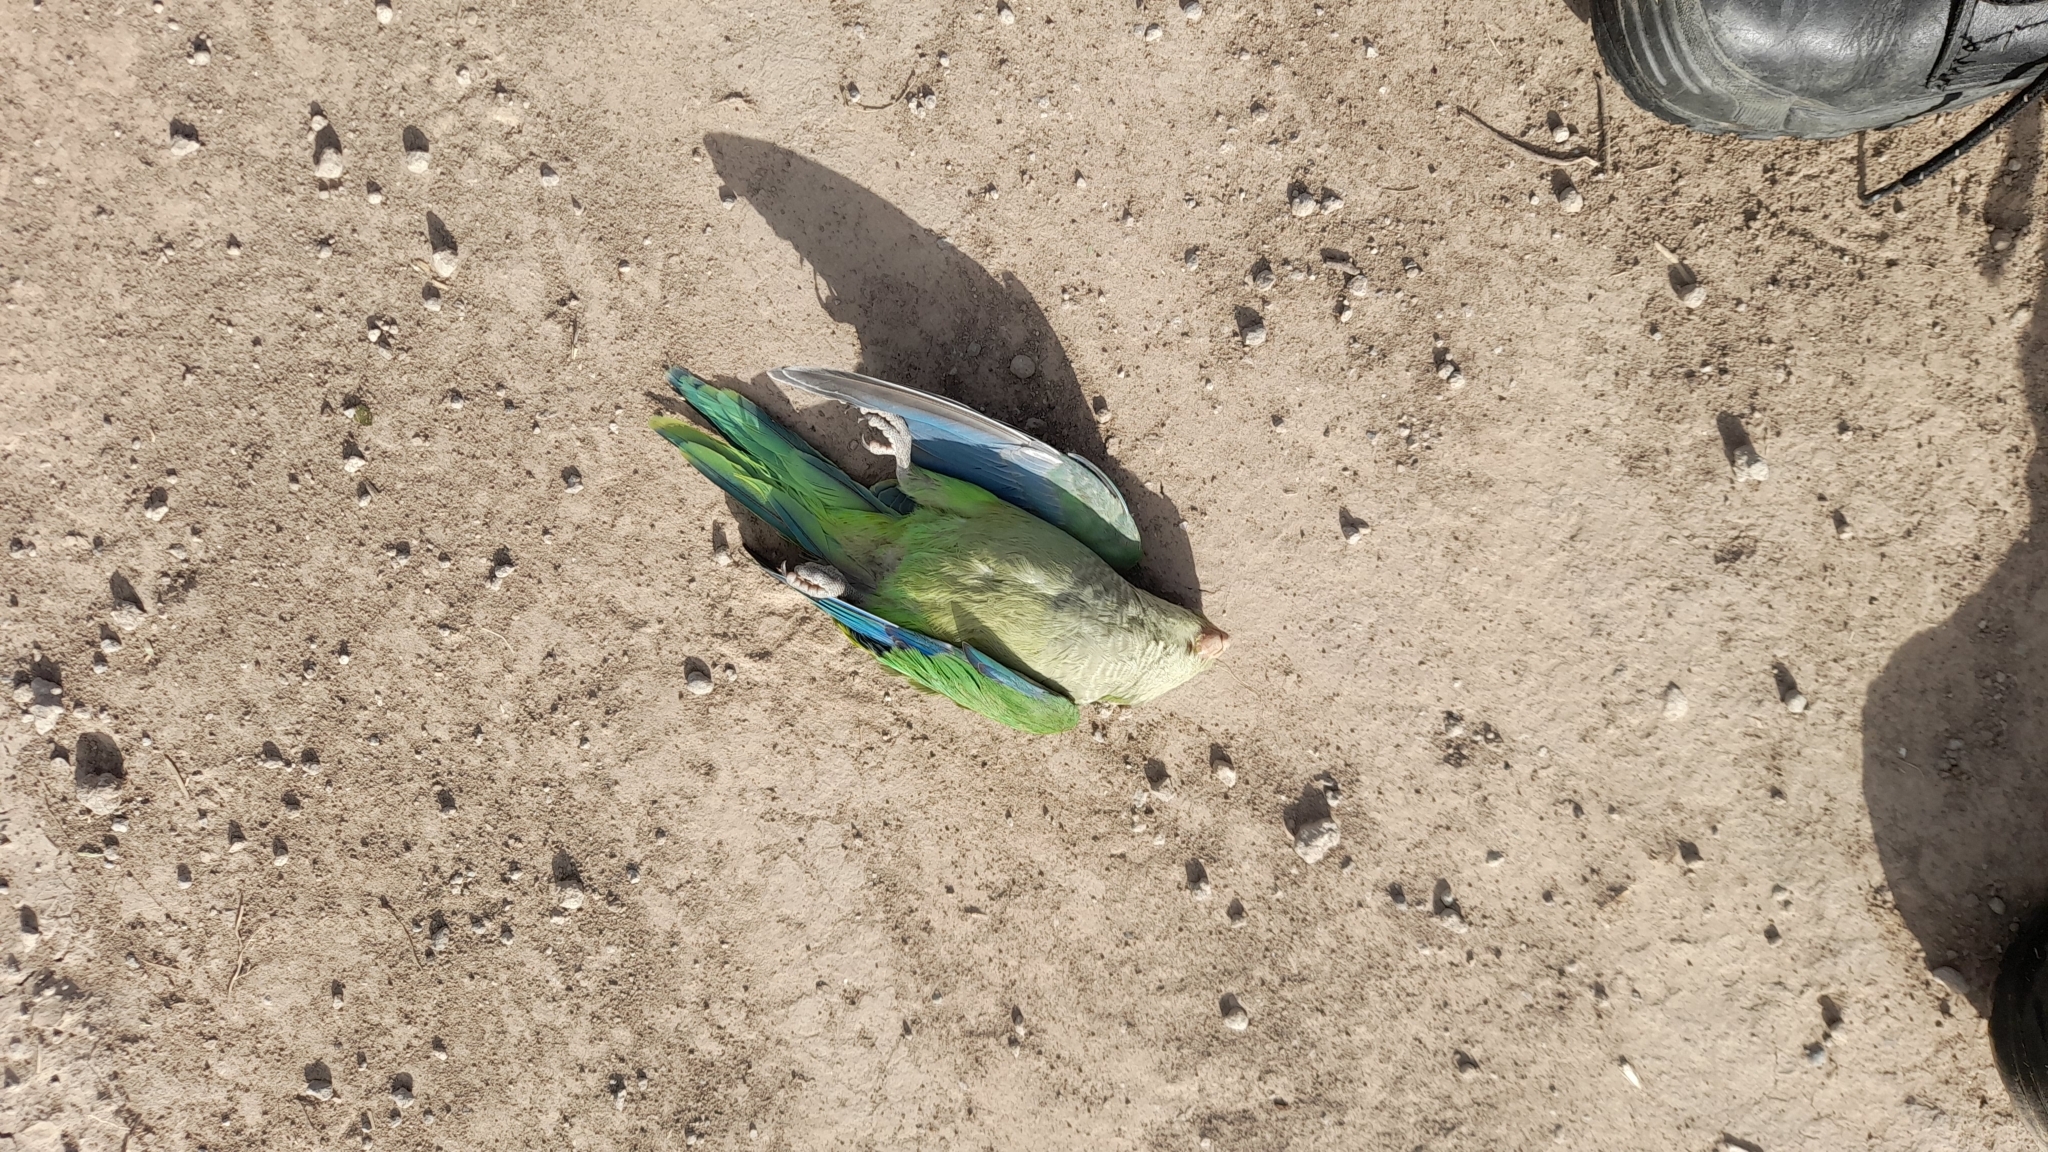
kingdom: Animalia
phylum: Chordata
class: Aves
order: Psittaciformes
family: Psittacidae
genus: Myiopsitta
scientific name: Myiopsitta monachus
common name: Monk parakeet
